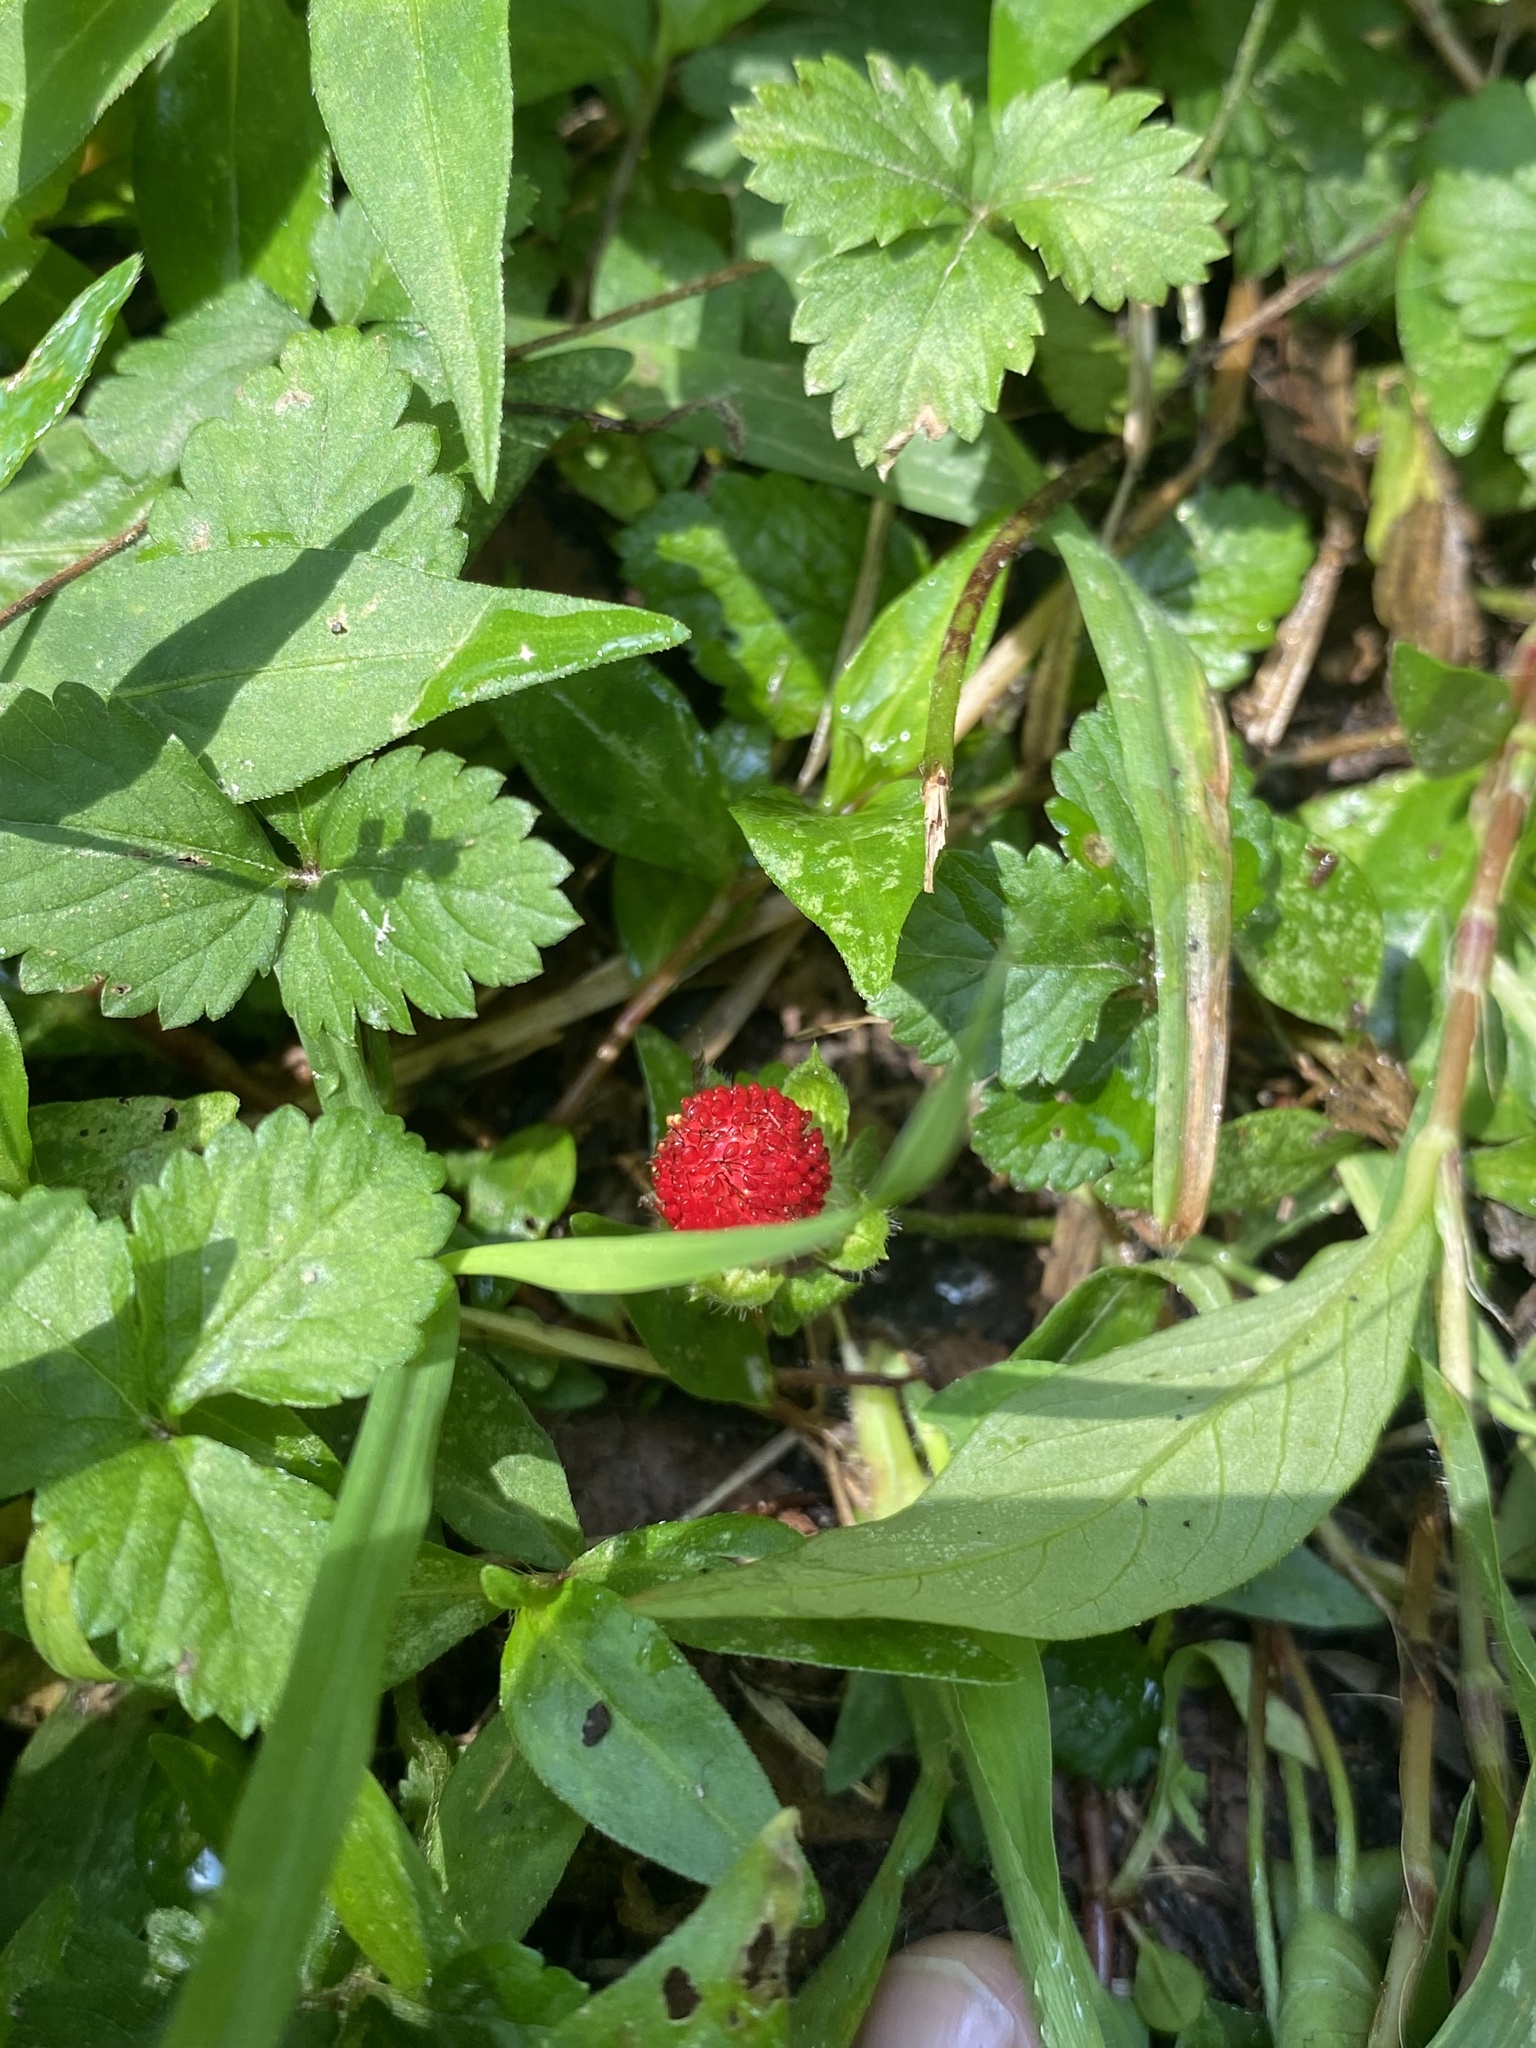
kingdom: Plantae
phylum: Tracheophyta
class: Magnoliopsida
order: Rosales
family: Rosaceae
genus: Potentilla
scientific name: Potentilla indica
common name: Yellow-flowered strawberry
